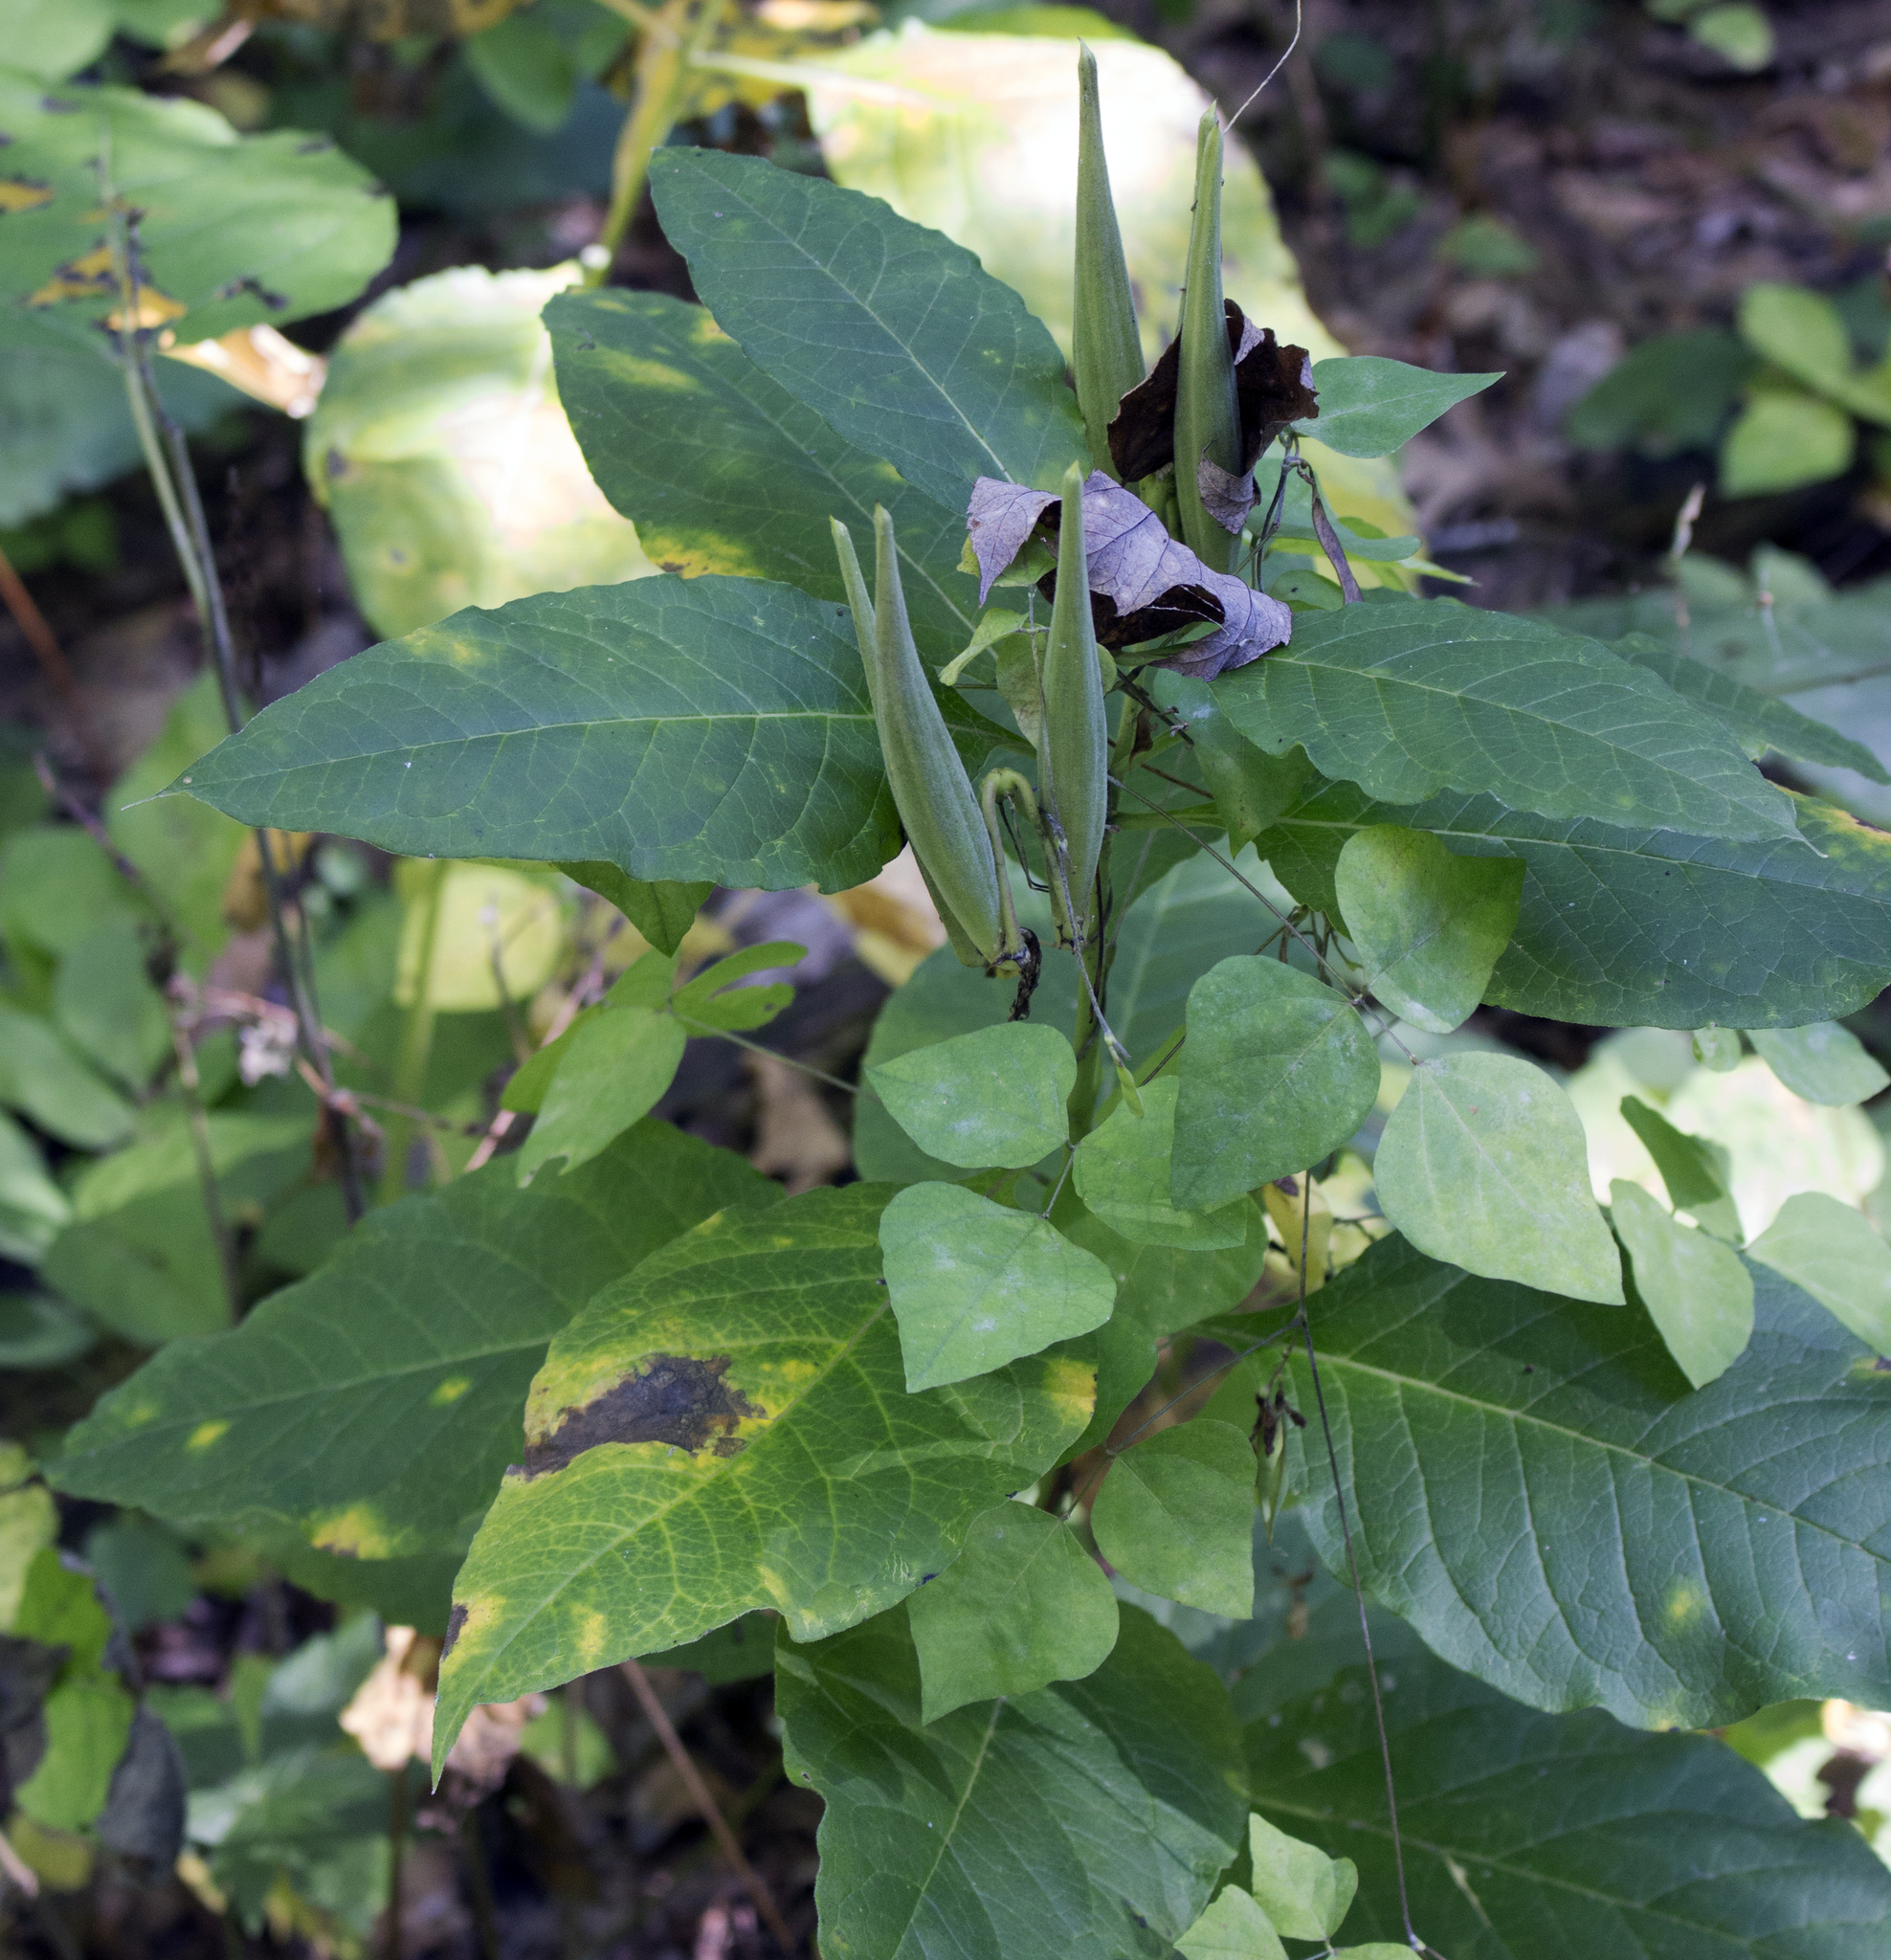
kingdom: Plantae
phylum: Tracheophyta
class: Magnoliopsida
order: Gentianales
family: Apocynaceae
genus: Asclepias
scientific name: Asclepias exaltata
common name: Poke milkweed
